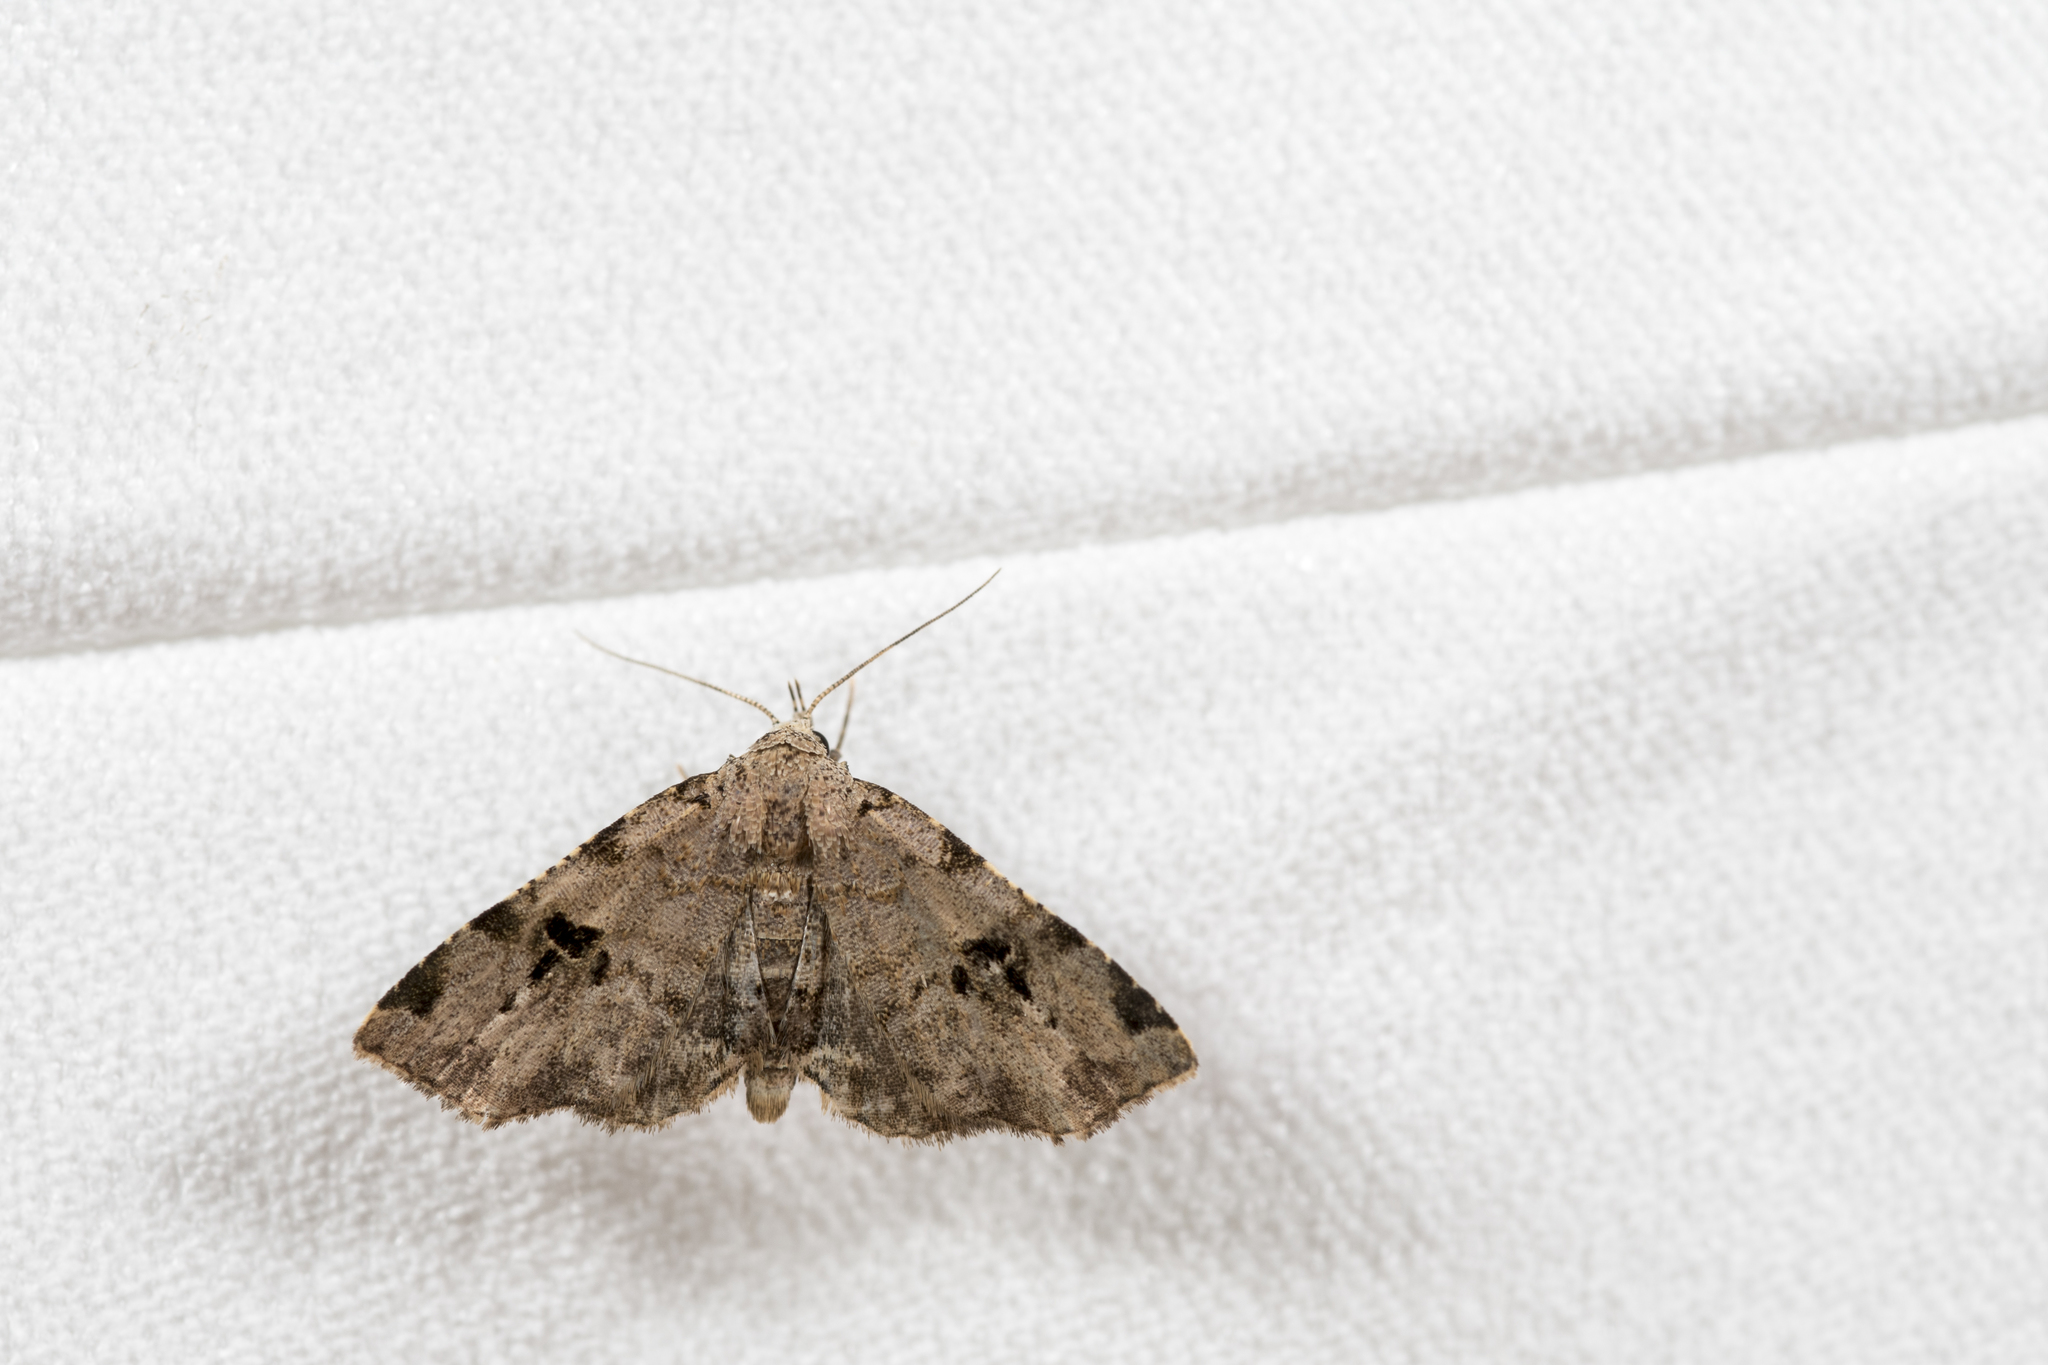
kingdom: Animalia
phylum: Arthropoda
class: Insecta
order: Lepidoptera
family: Erebidae
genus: Chusaris
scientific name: Chusaris nigromaculata
